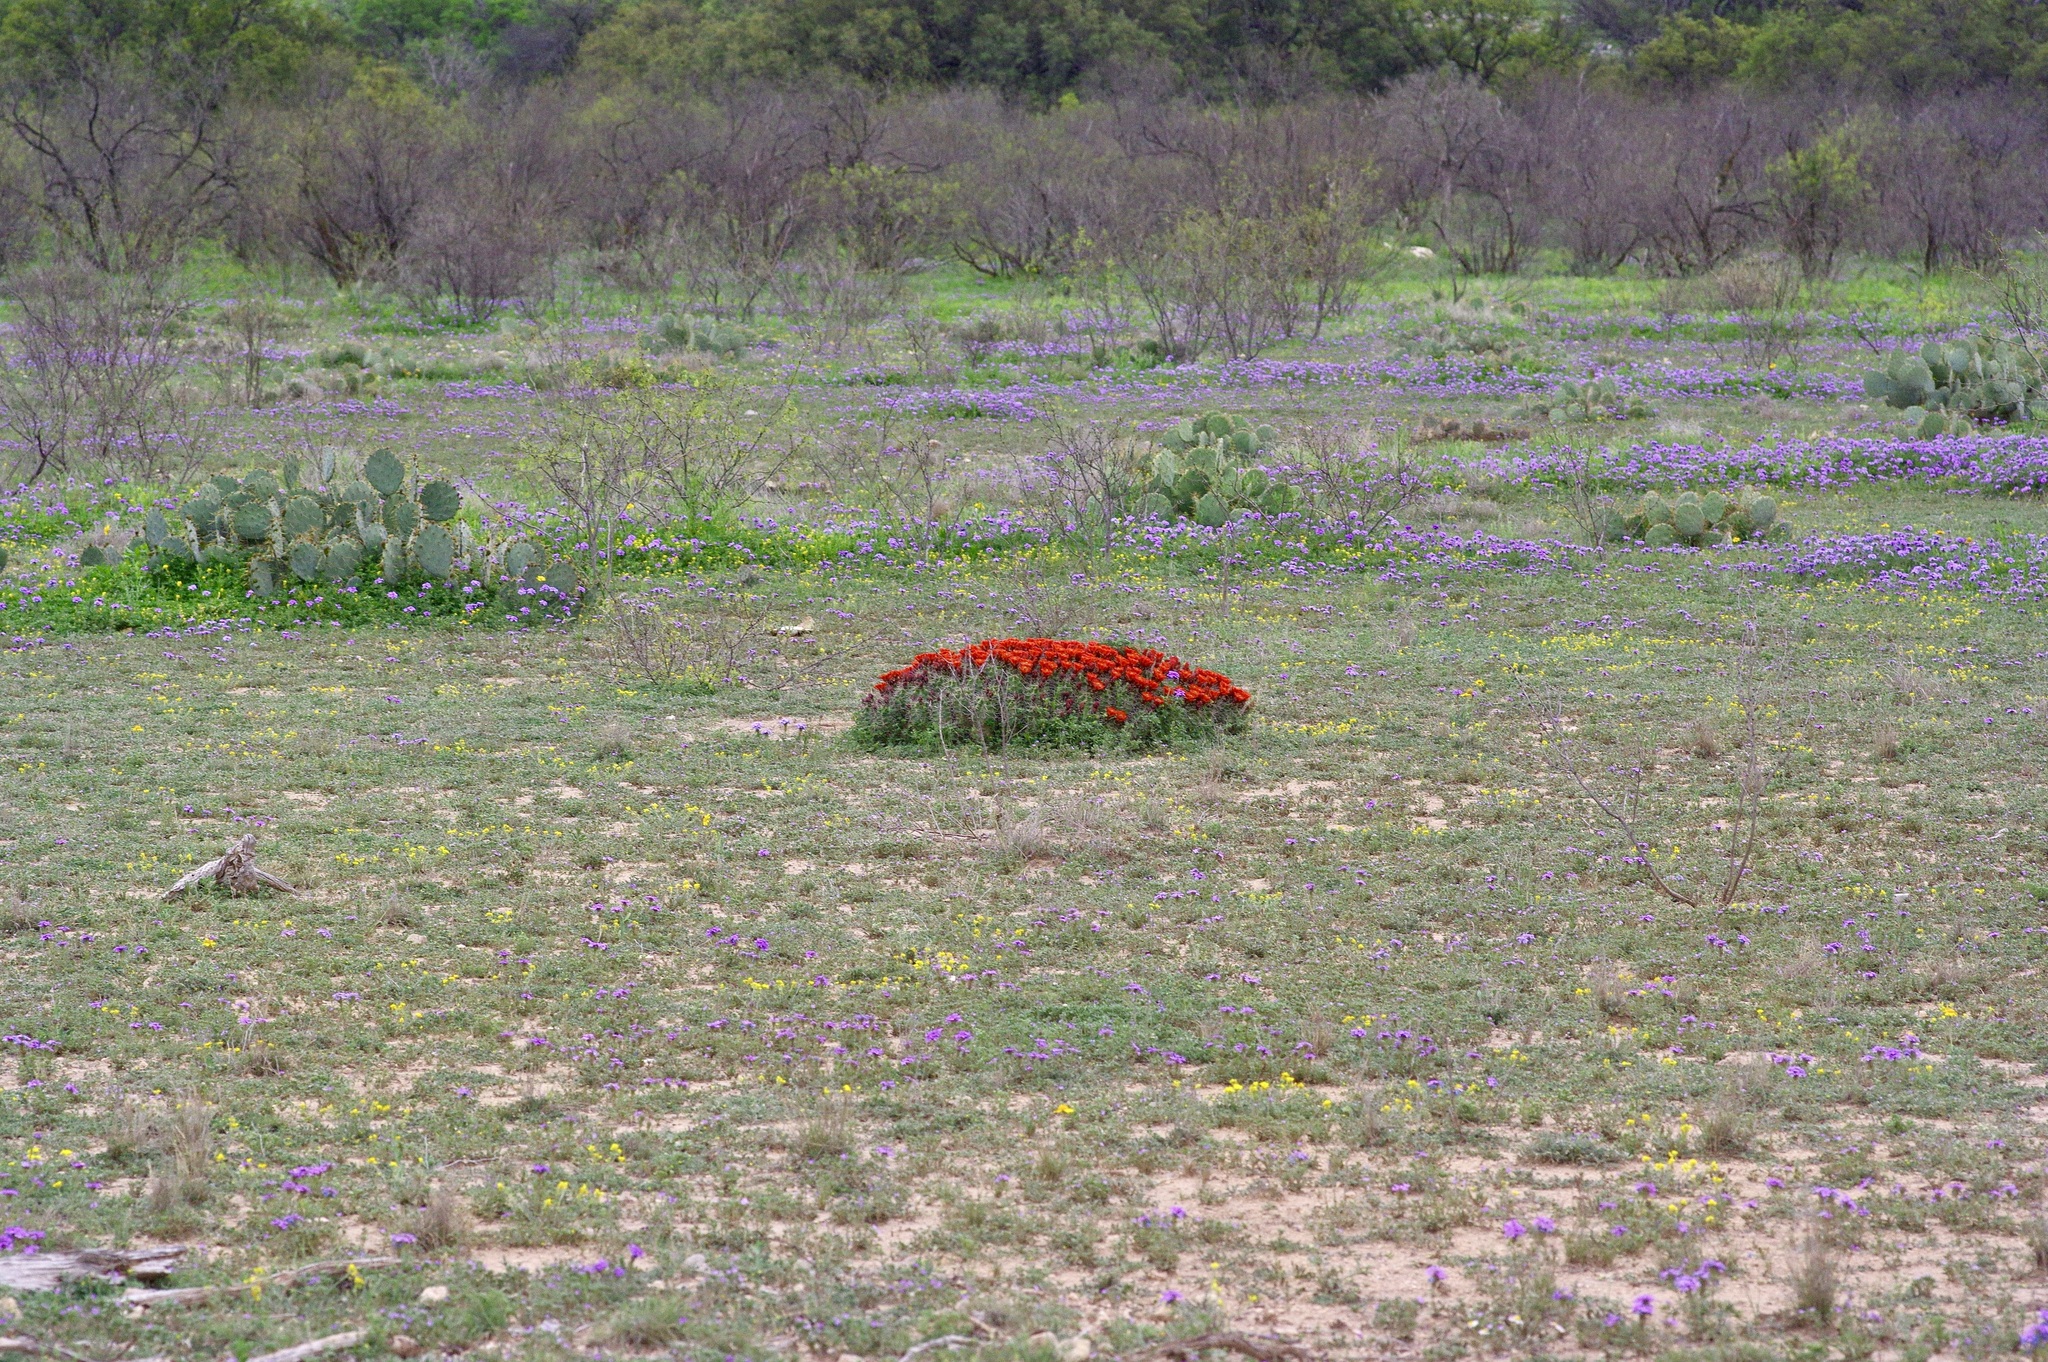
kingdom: Plantae
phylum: Tracheophyta
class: Magnoliopsida
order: Caryophyllales
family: Cactaceae
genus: Echinocereus
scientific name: Echinocereus coccineus
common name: Scarlet hedgehog cactus
